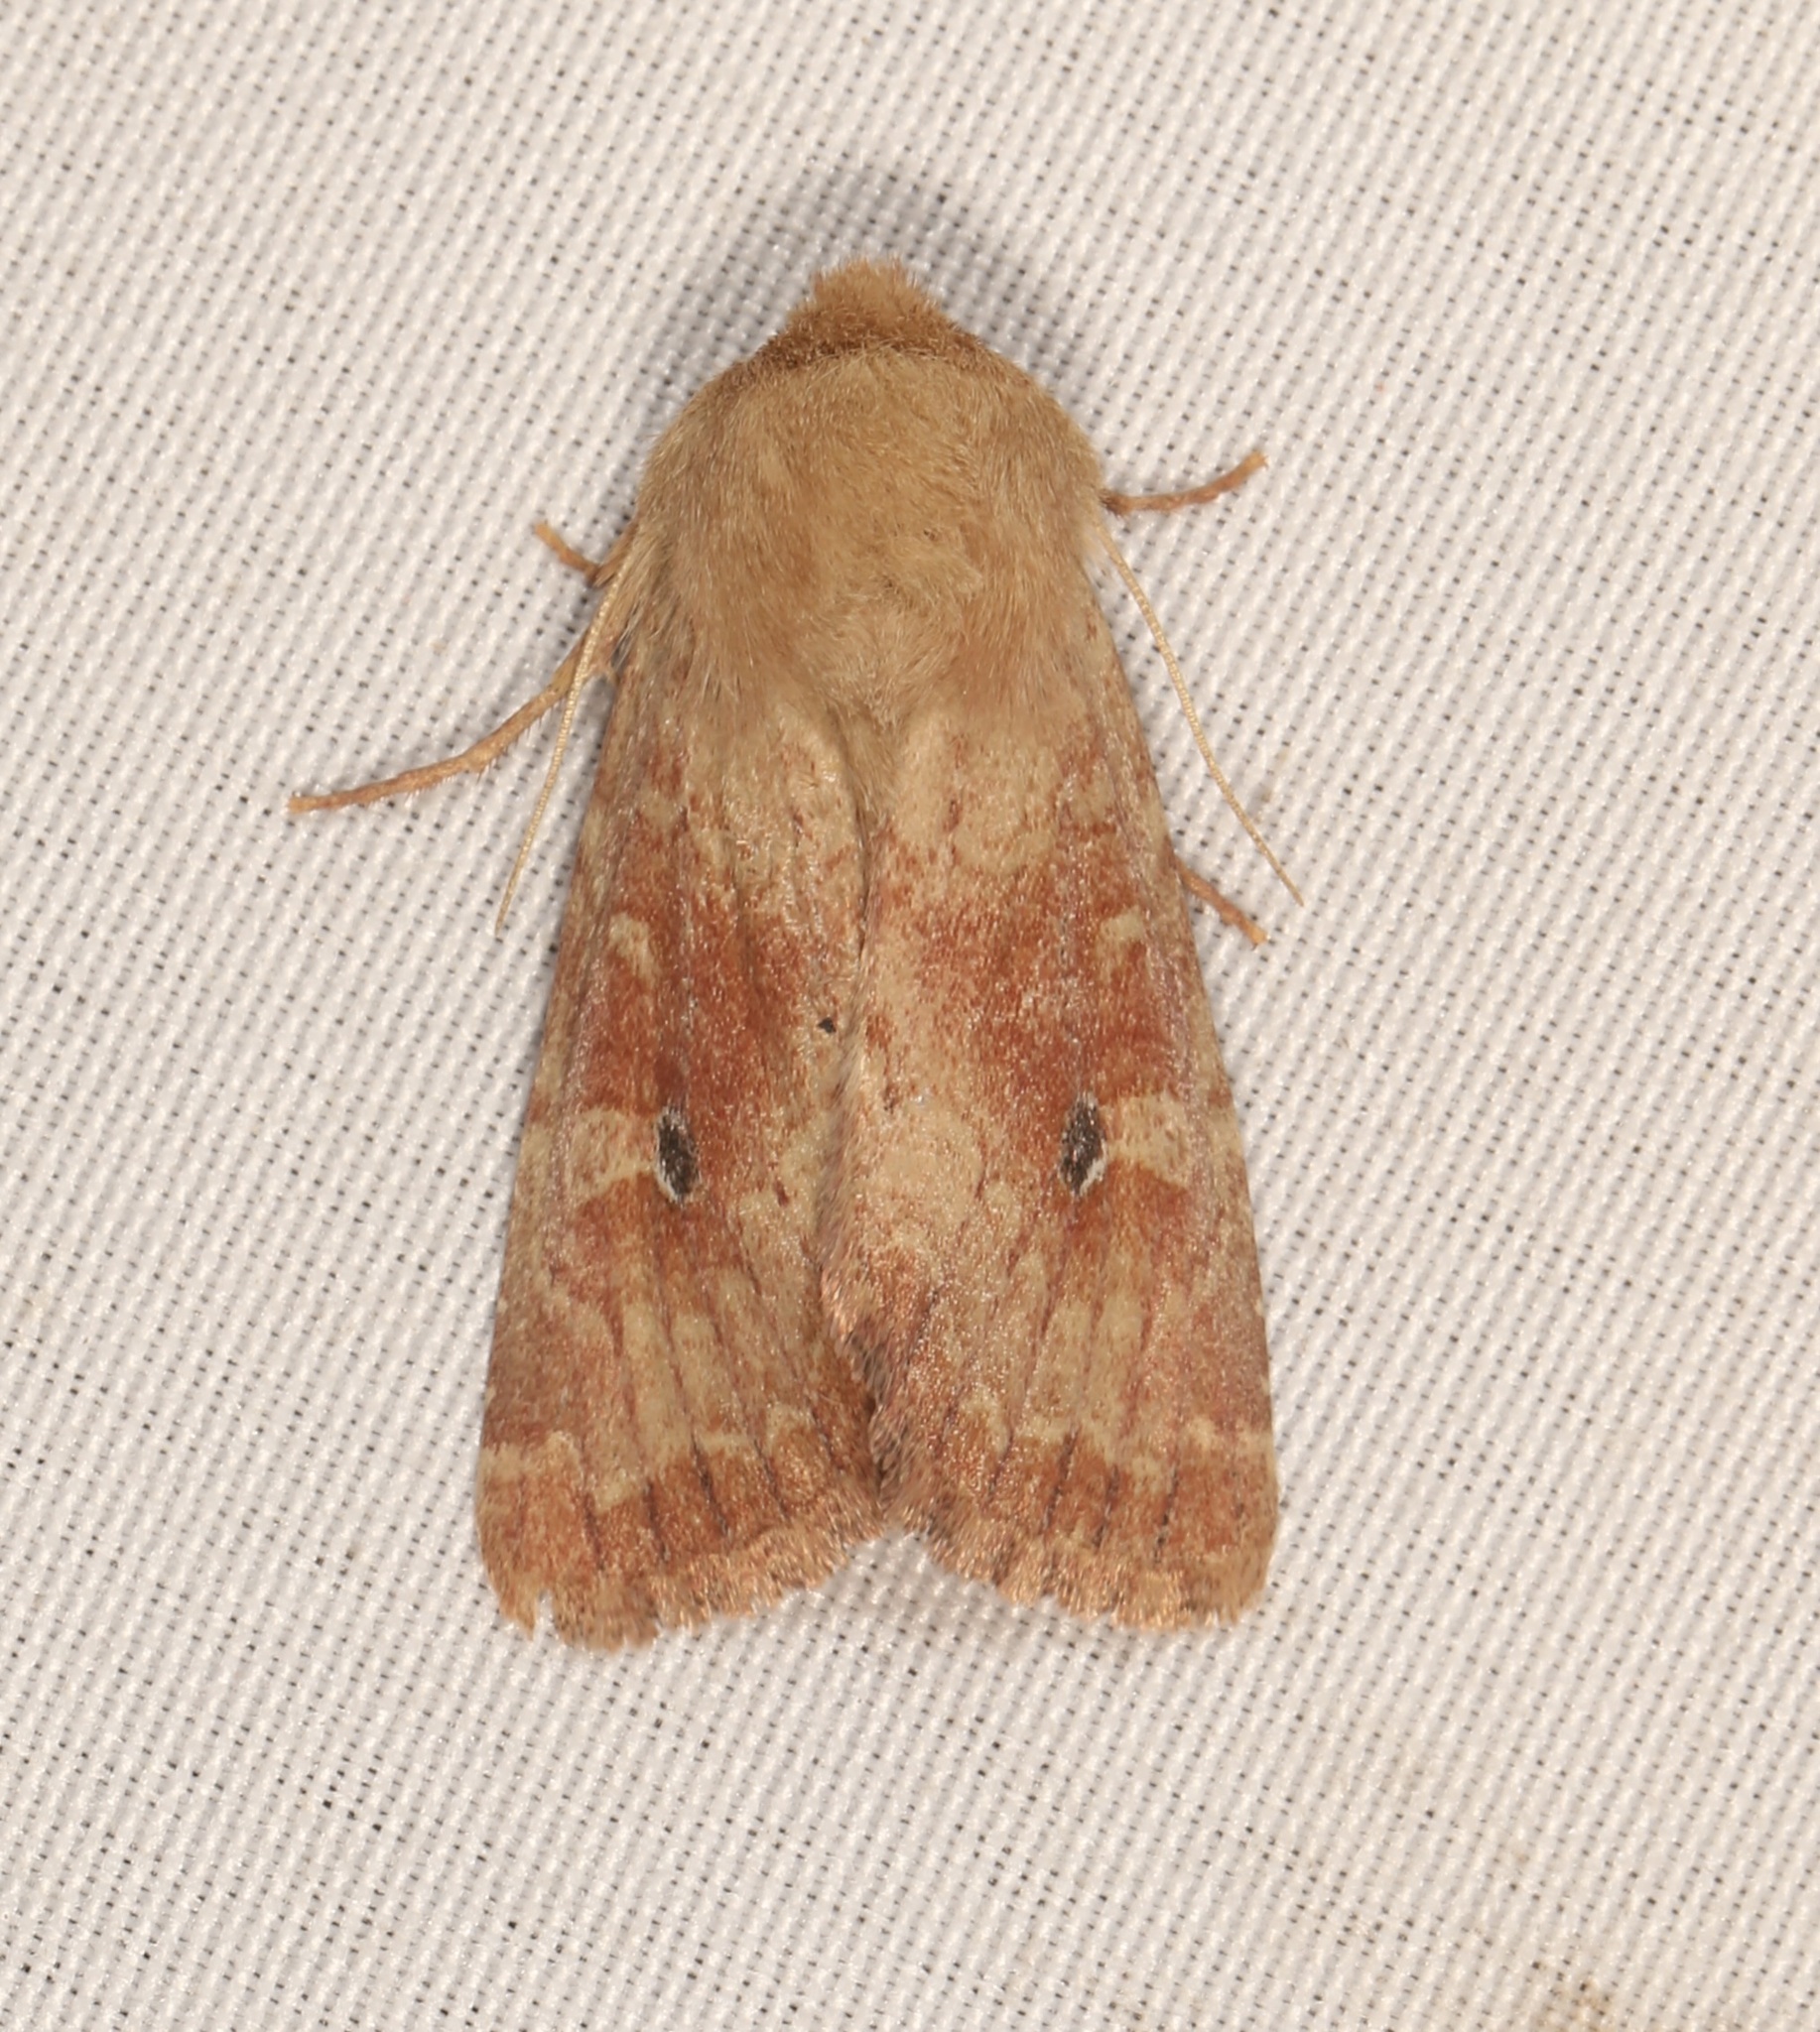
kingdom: Animalia
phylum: Arthropoda
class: Insecta
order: Lepidoptera
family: Noctuidae
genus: Apamea
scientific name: Apamea inficita
